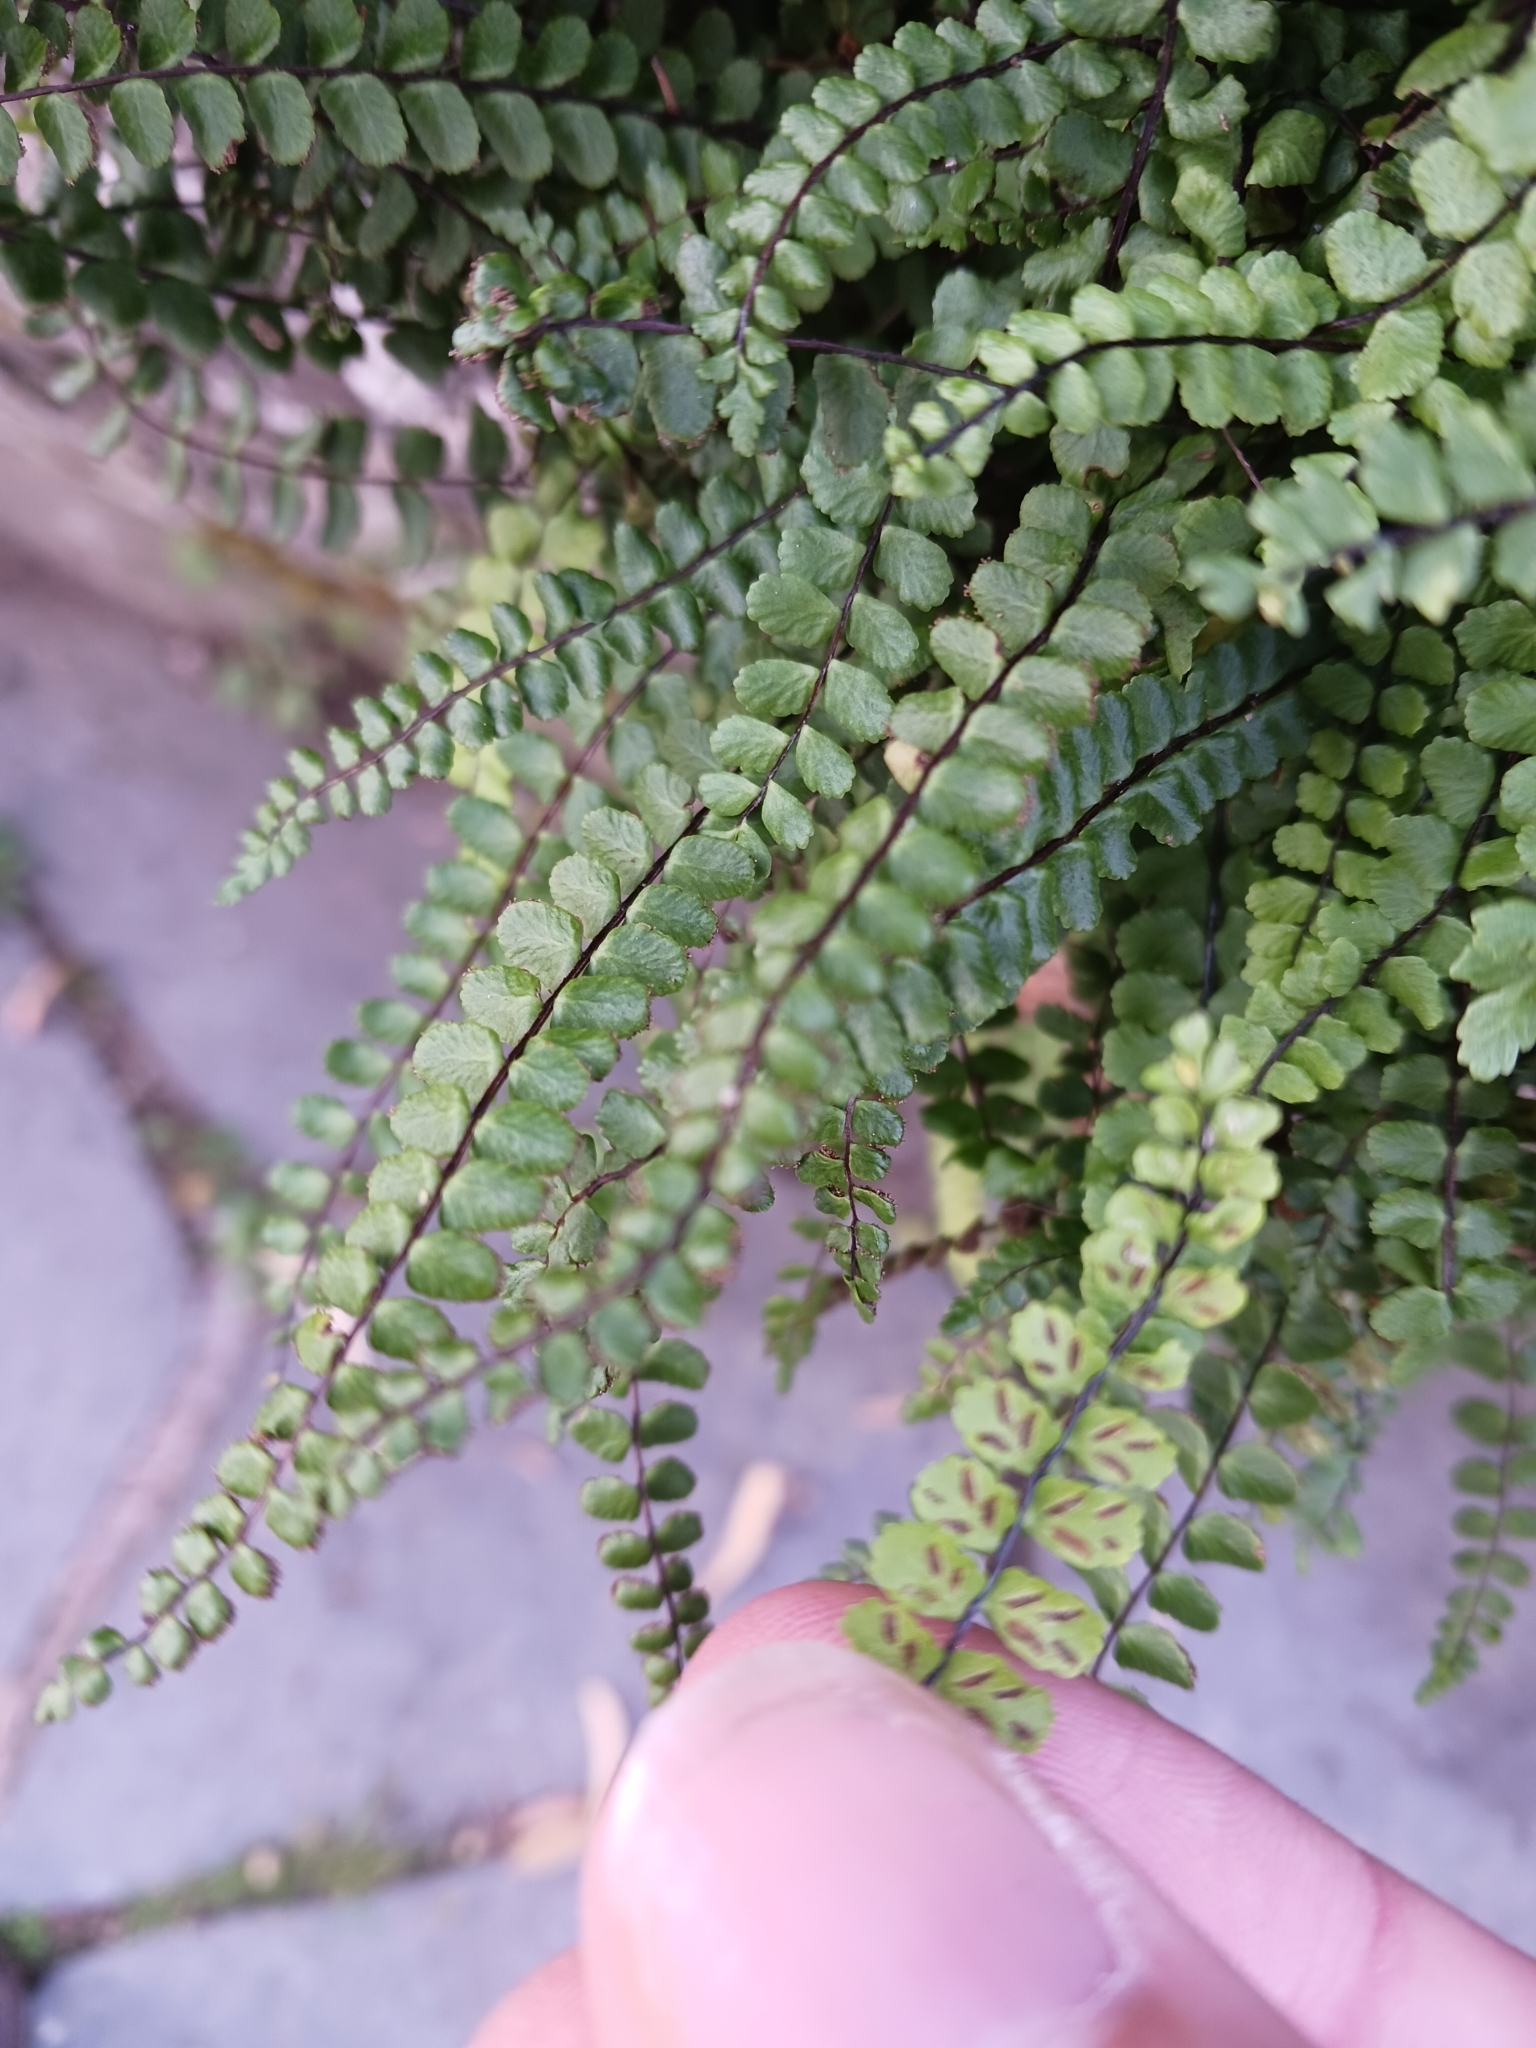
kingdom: Plantae
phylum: Tracheophyta
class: Polypodiopsida
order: Polypodiales
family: Aspleniaceae
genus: Asplenium
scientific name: Asplenium trichomanes
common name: Maidenhair spleenwort
